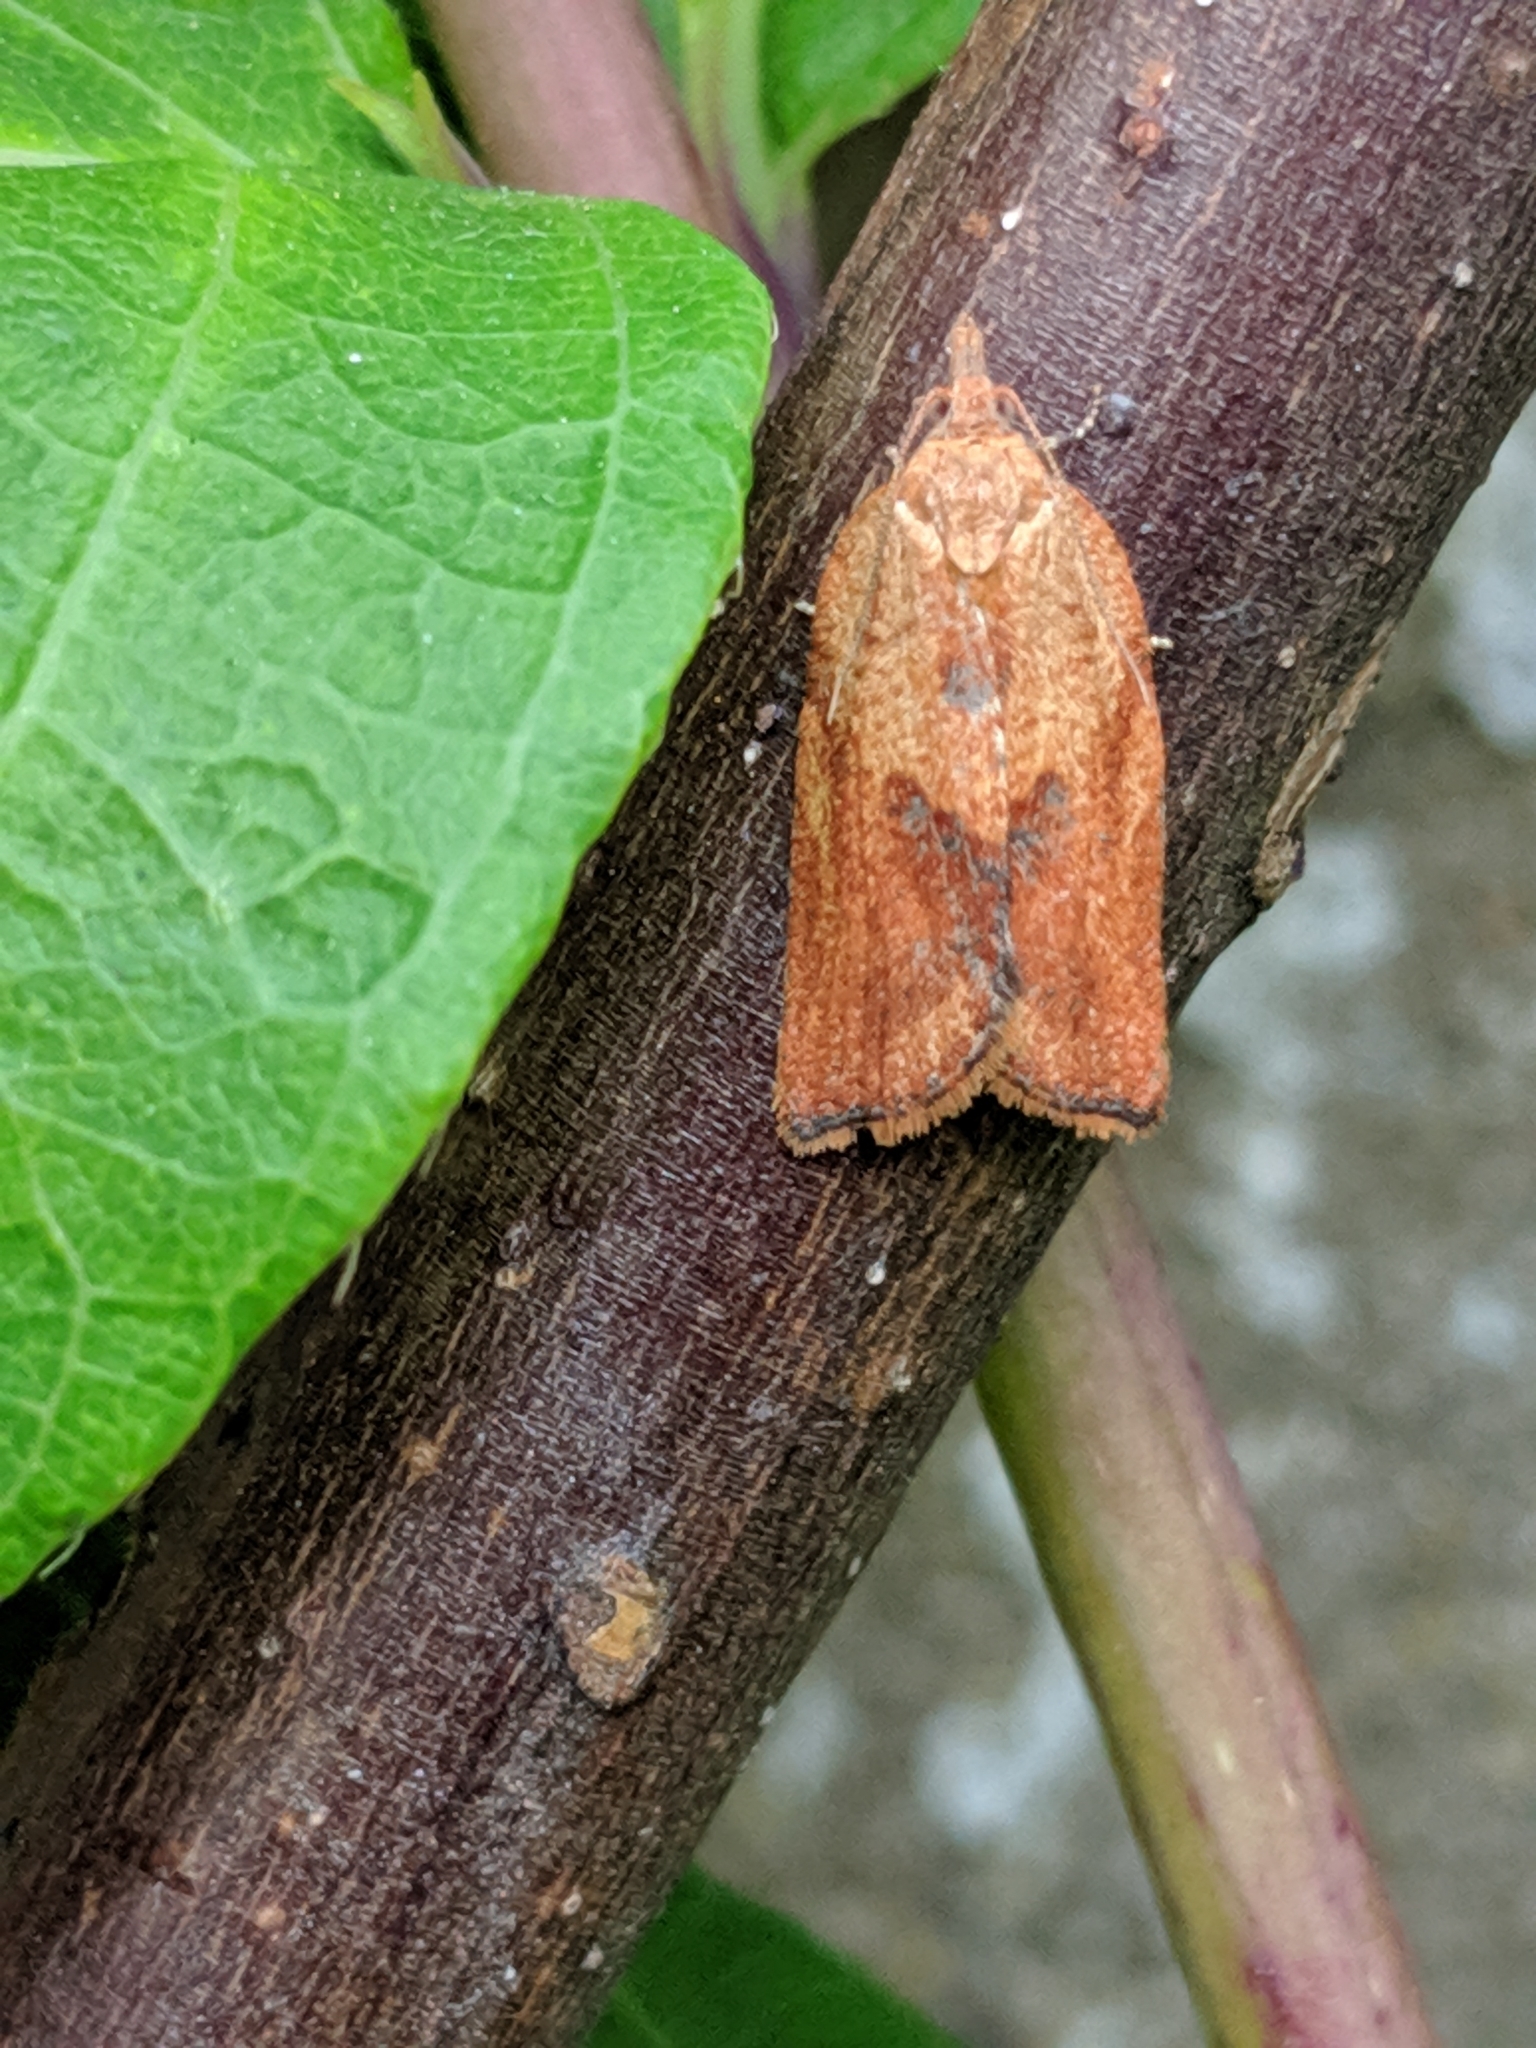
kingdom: Animalia
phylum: Arthropoda
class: Insecta
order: Lepidoptera
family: Tortricidae
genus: Epiphyas
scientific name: Epiphyas postvittana
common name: Light brown apple moth
